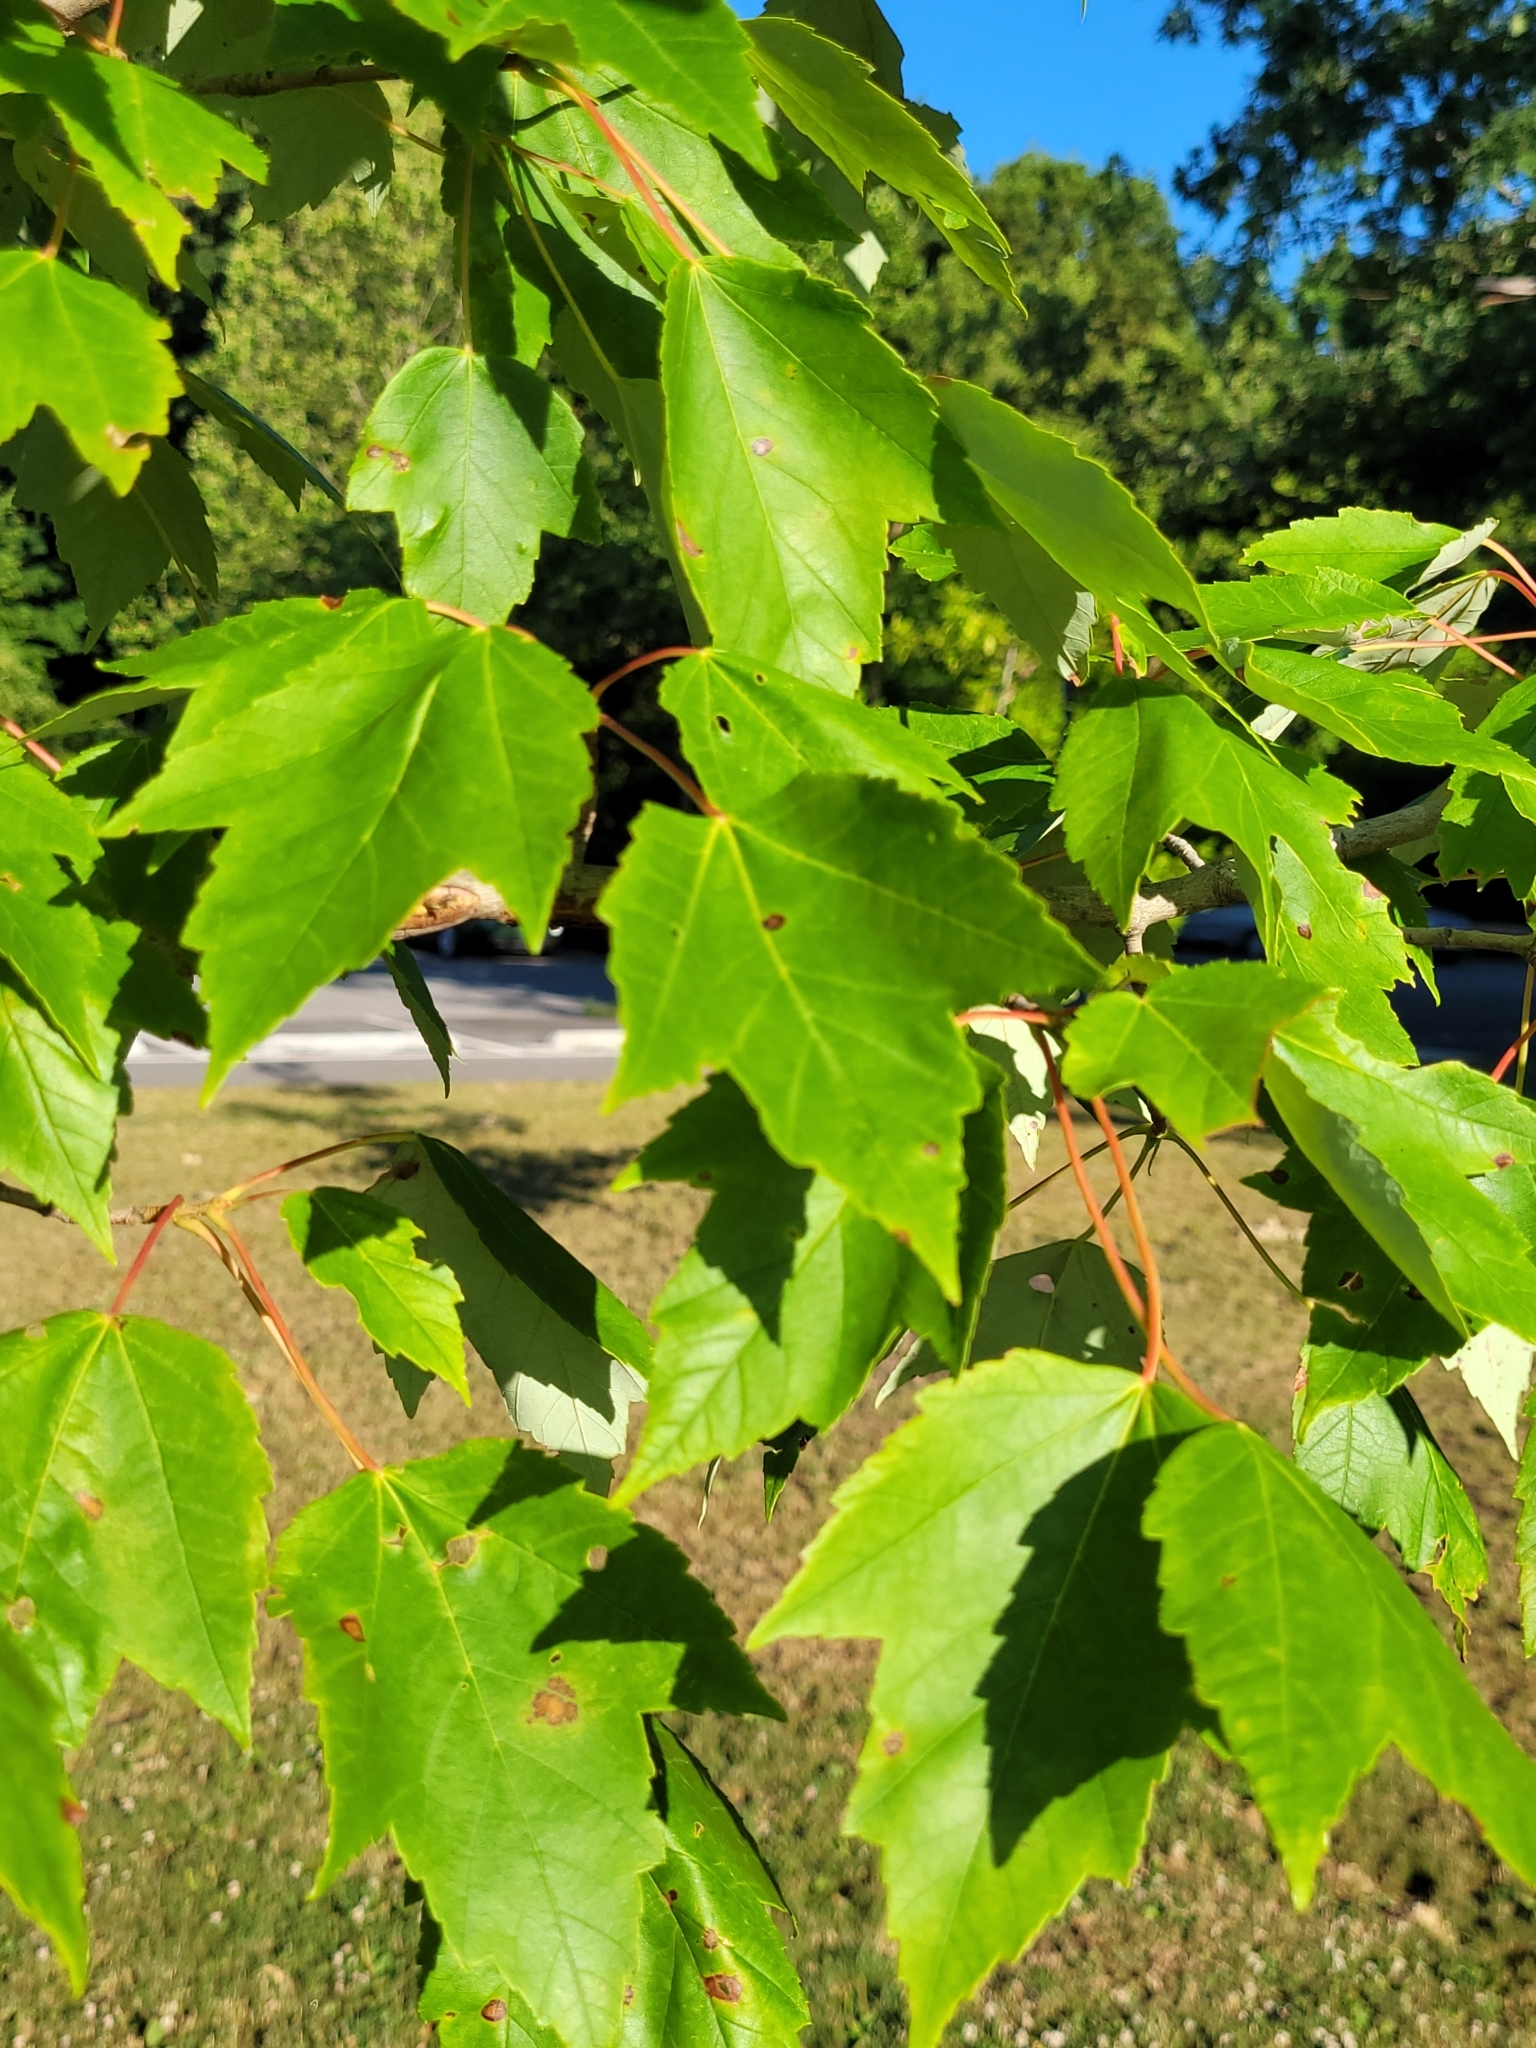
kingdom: Plantae
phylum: Tracheophyta
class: Magnoliopsida
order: Sapindales
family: Sapindaceae
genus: Acer
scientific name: Acer rubrum
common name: Red maple
